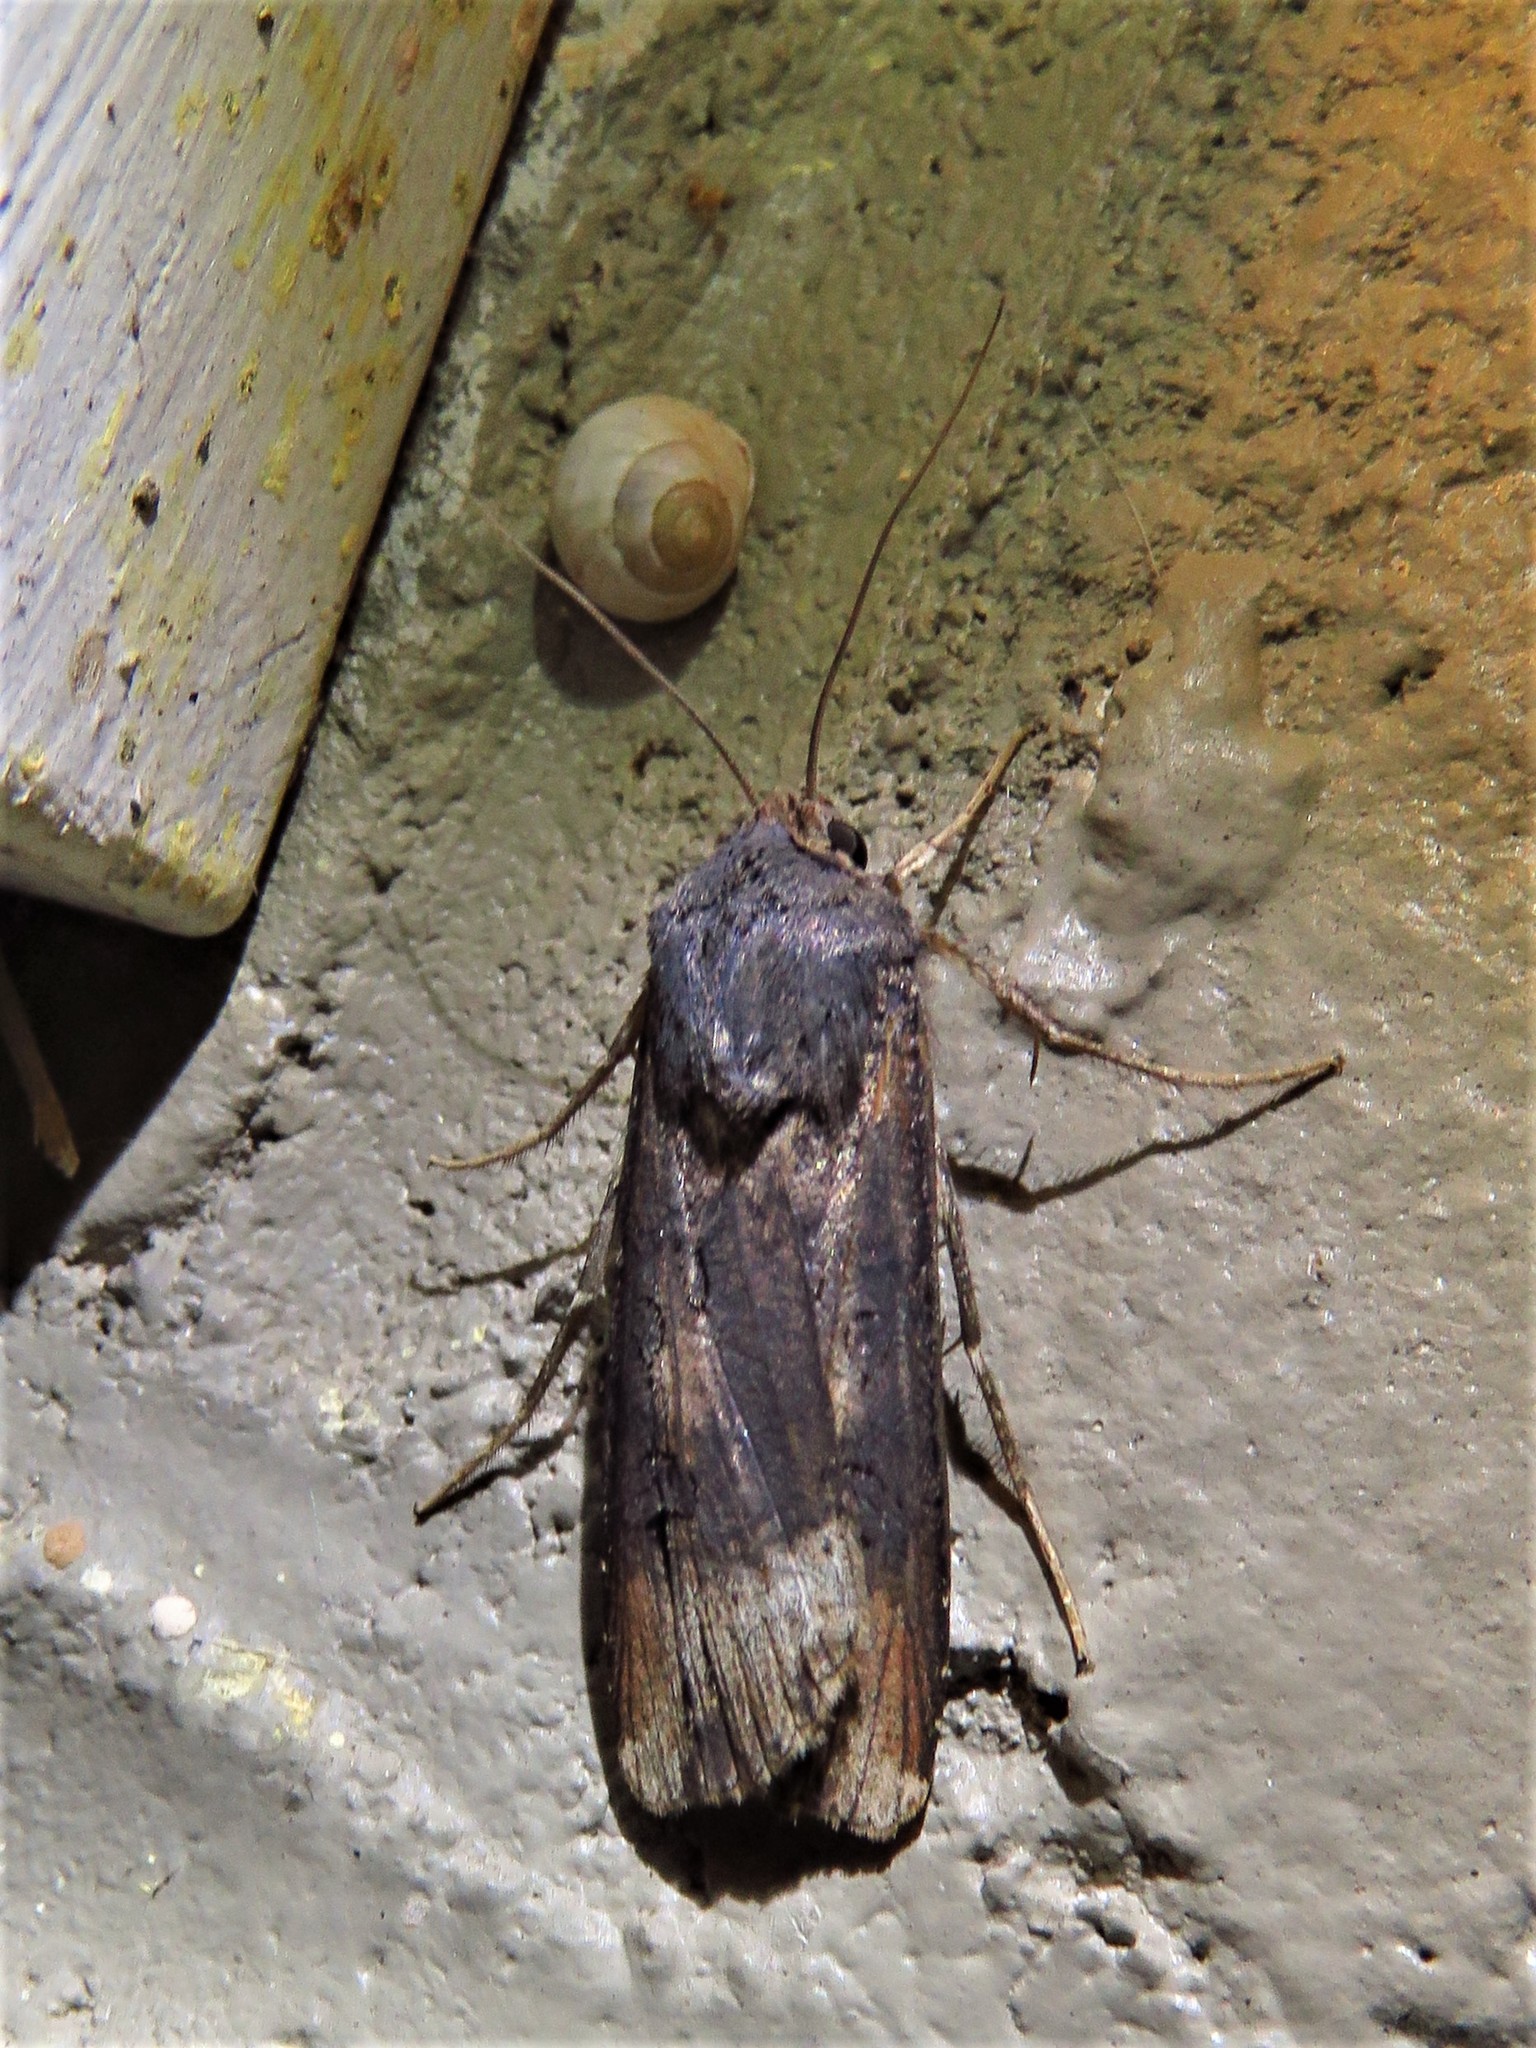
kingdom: Animalia
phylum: Arthropoda
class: Insecta
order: Lepidoptera
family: Noctuidae
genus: Agrotis
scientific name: Agrotis ipsilon
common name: Dark sword-grass
